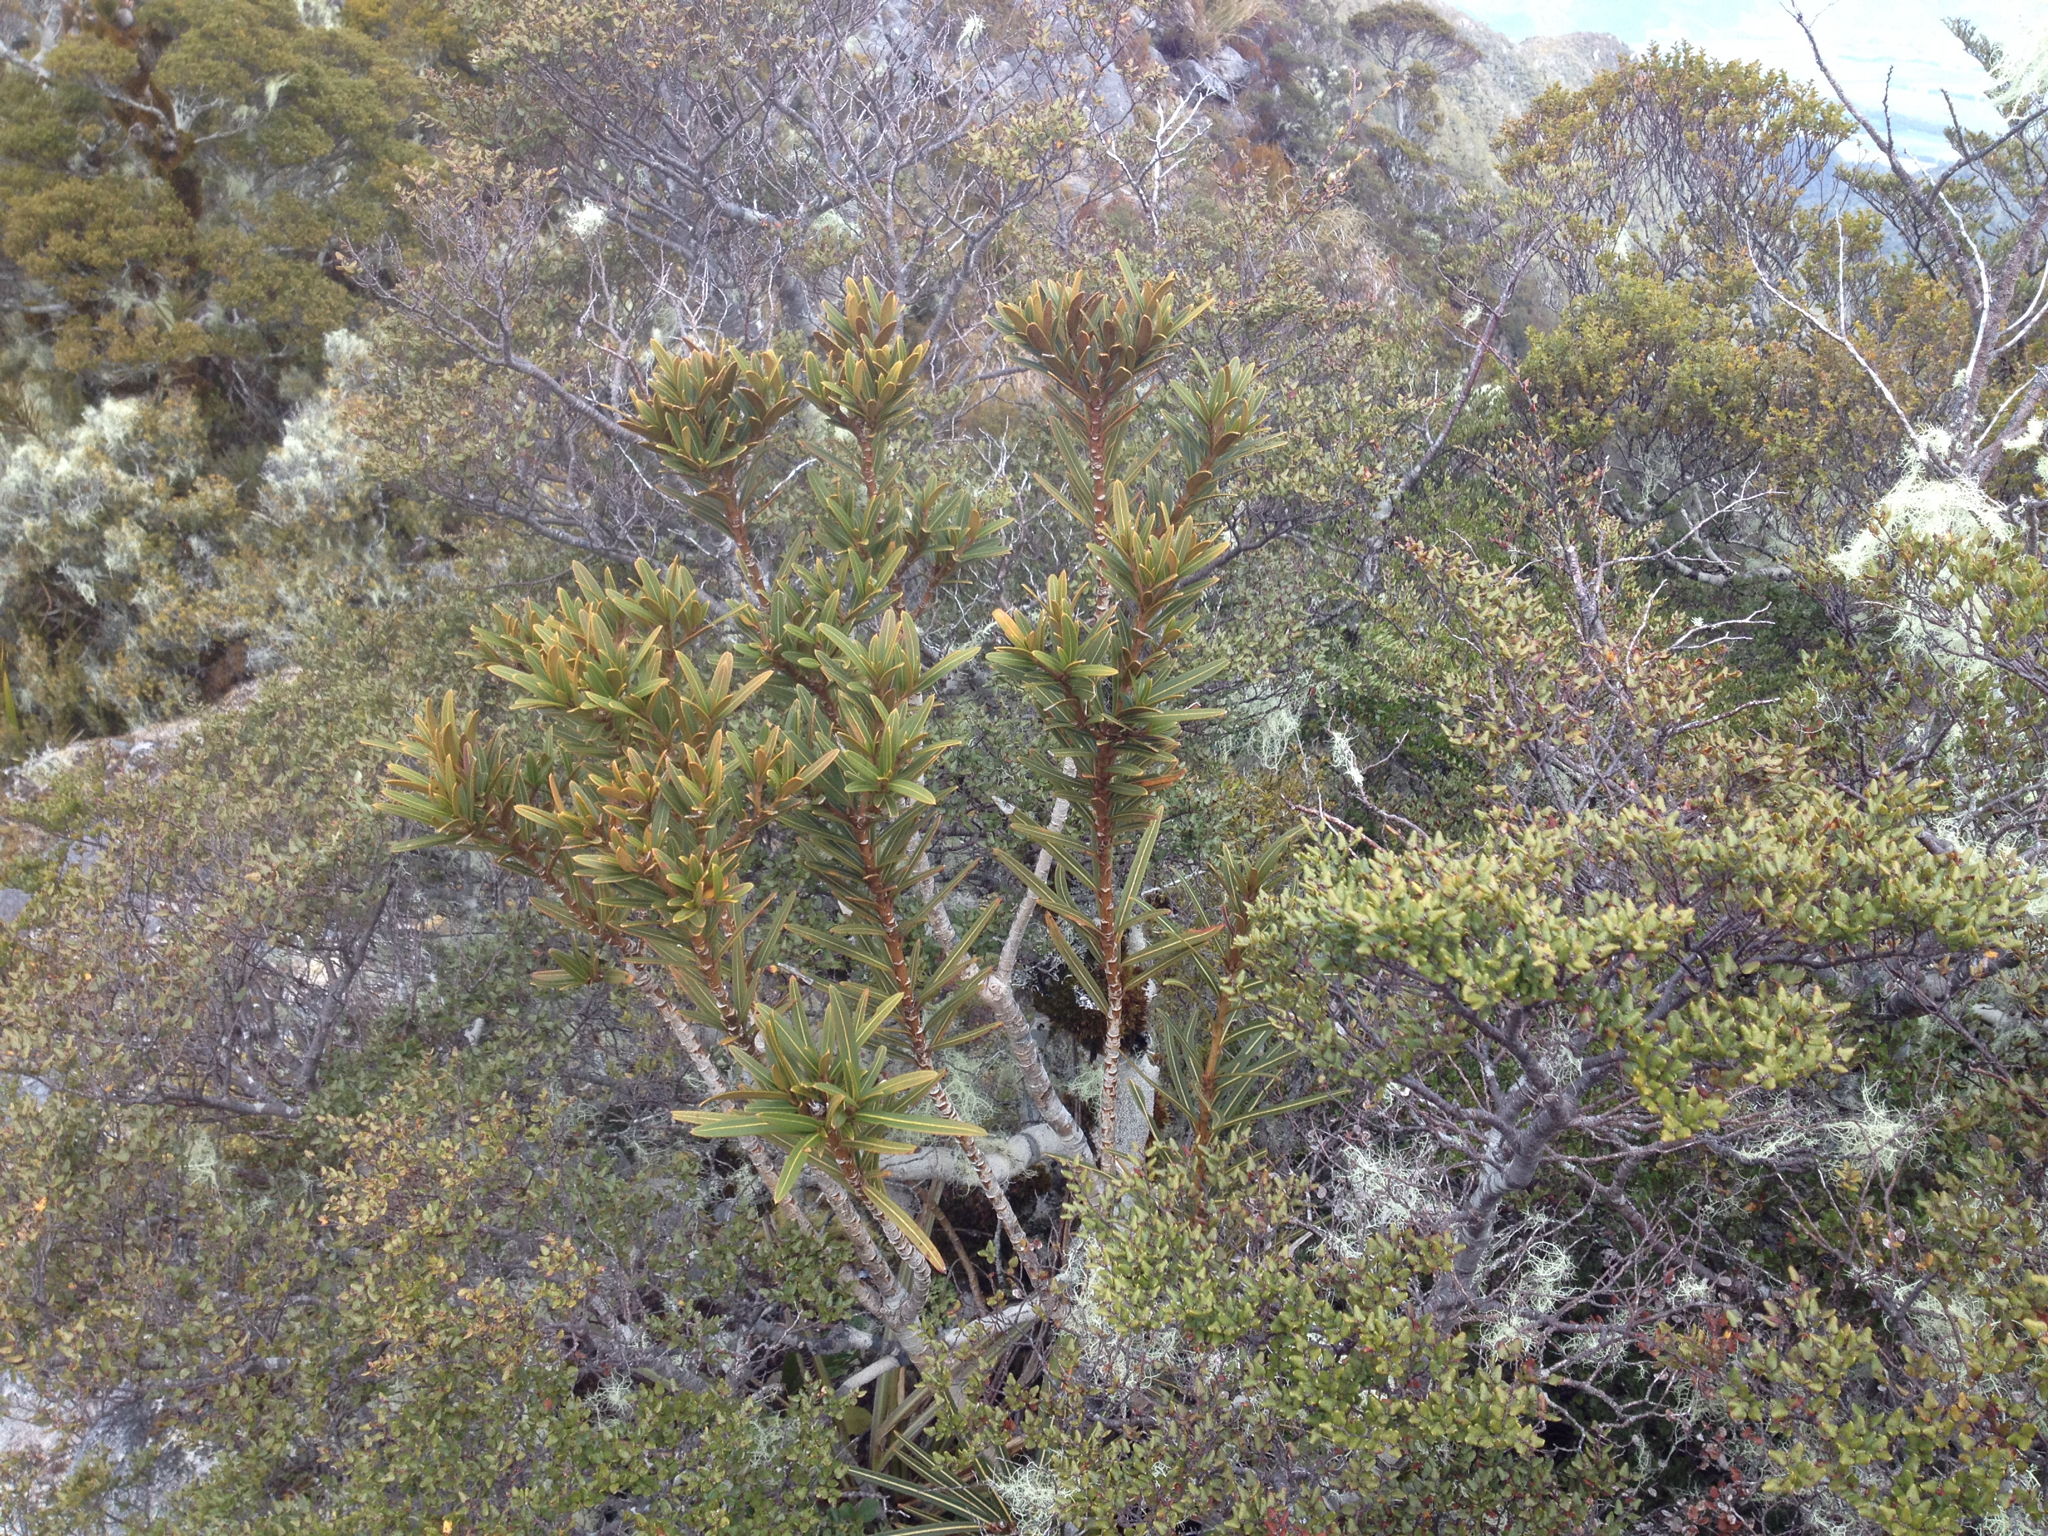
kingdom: Plantae
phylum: Tracheophyta
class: Magnoliopsida
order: Apiales
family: Araliaceae
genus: Pseudopanax
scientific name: Pseudopanax linearis
